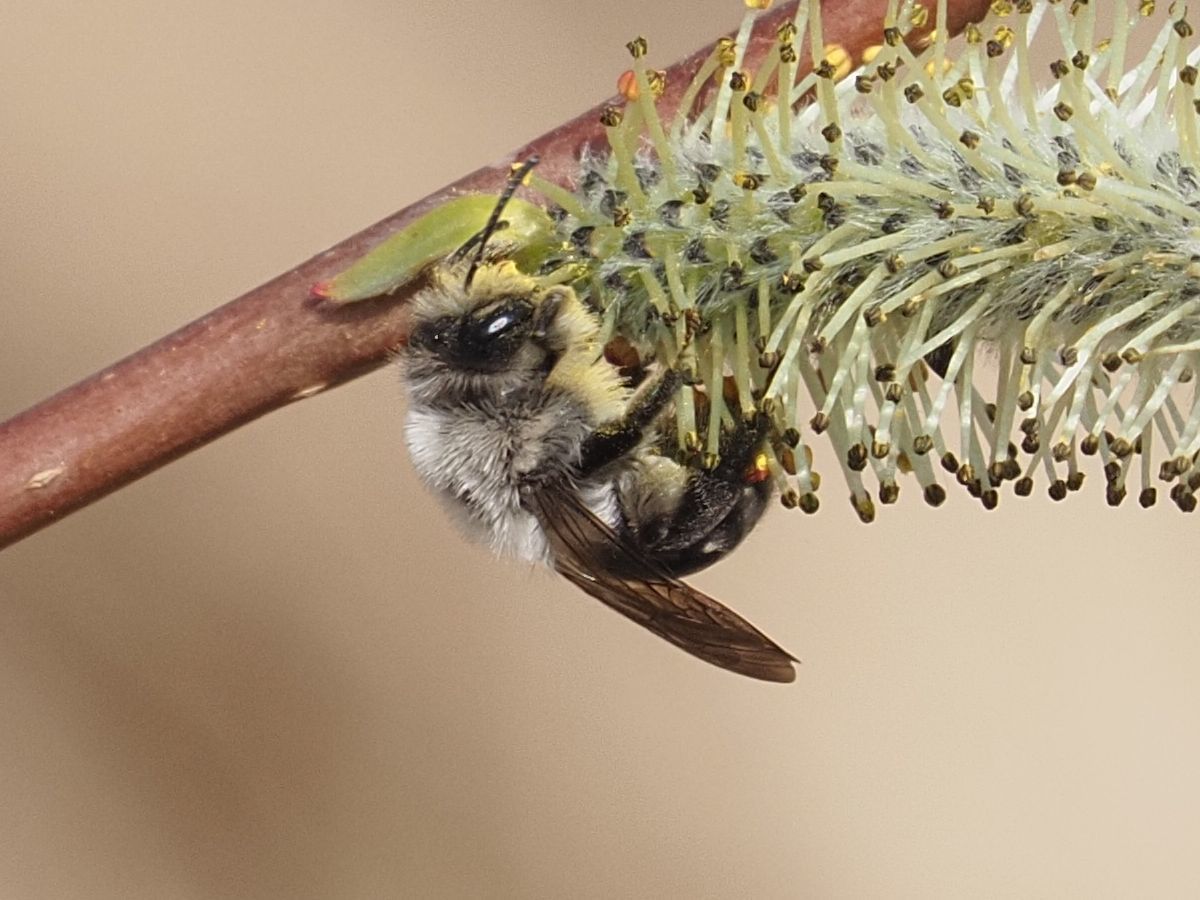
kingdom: Animalia
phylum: Arthropoda
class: Insecta
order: Hymenoptera
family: Andrenidae
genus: Andrena
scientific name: Andrena vaga
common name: Grey-backed mining bee
